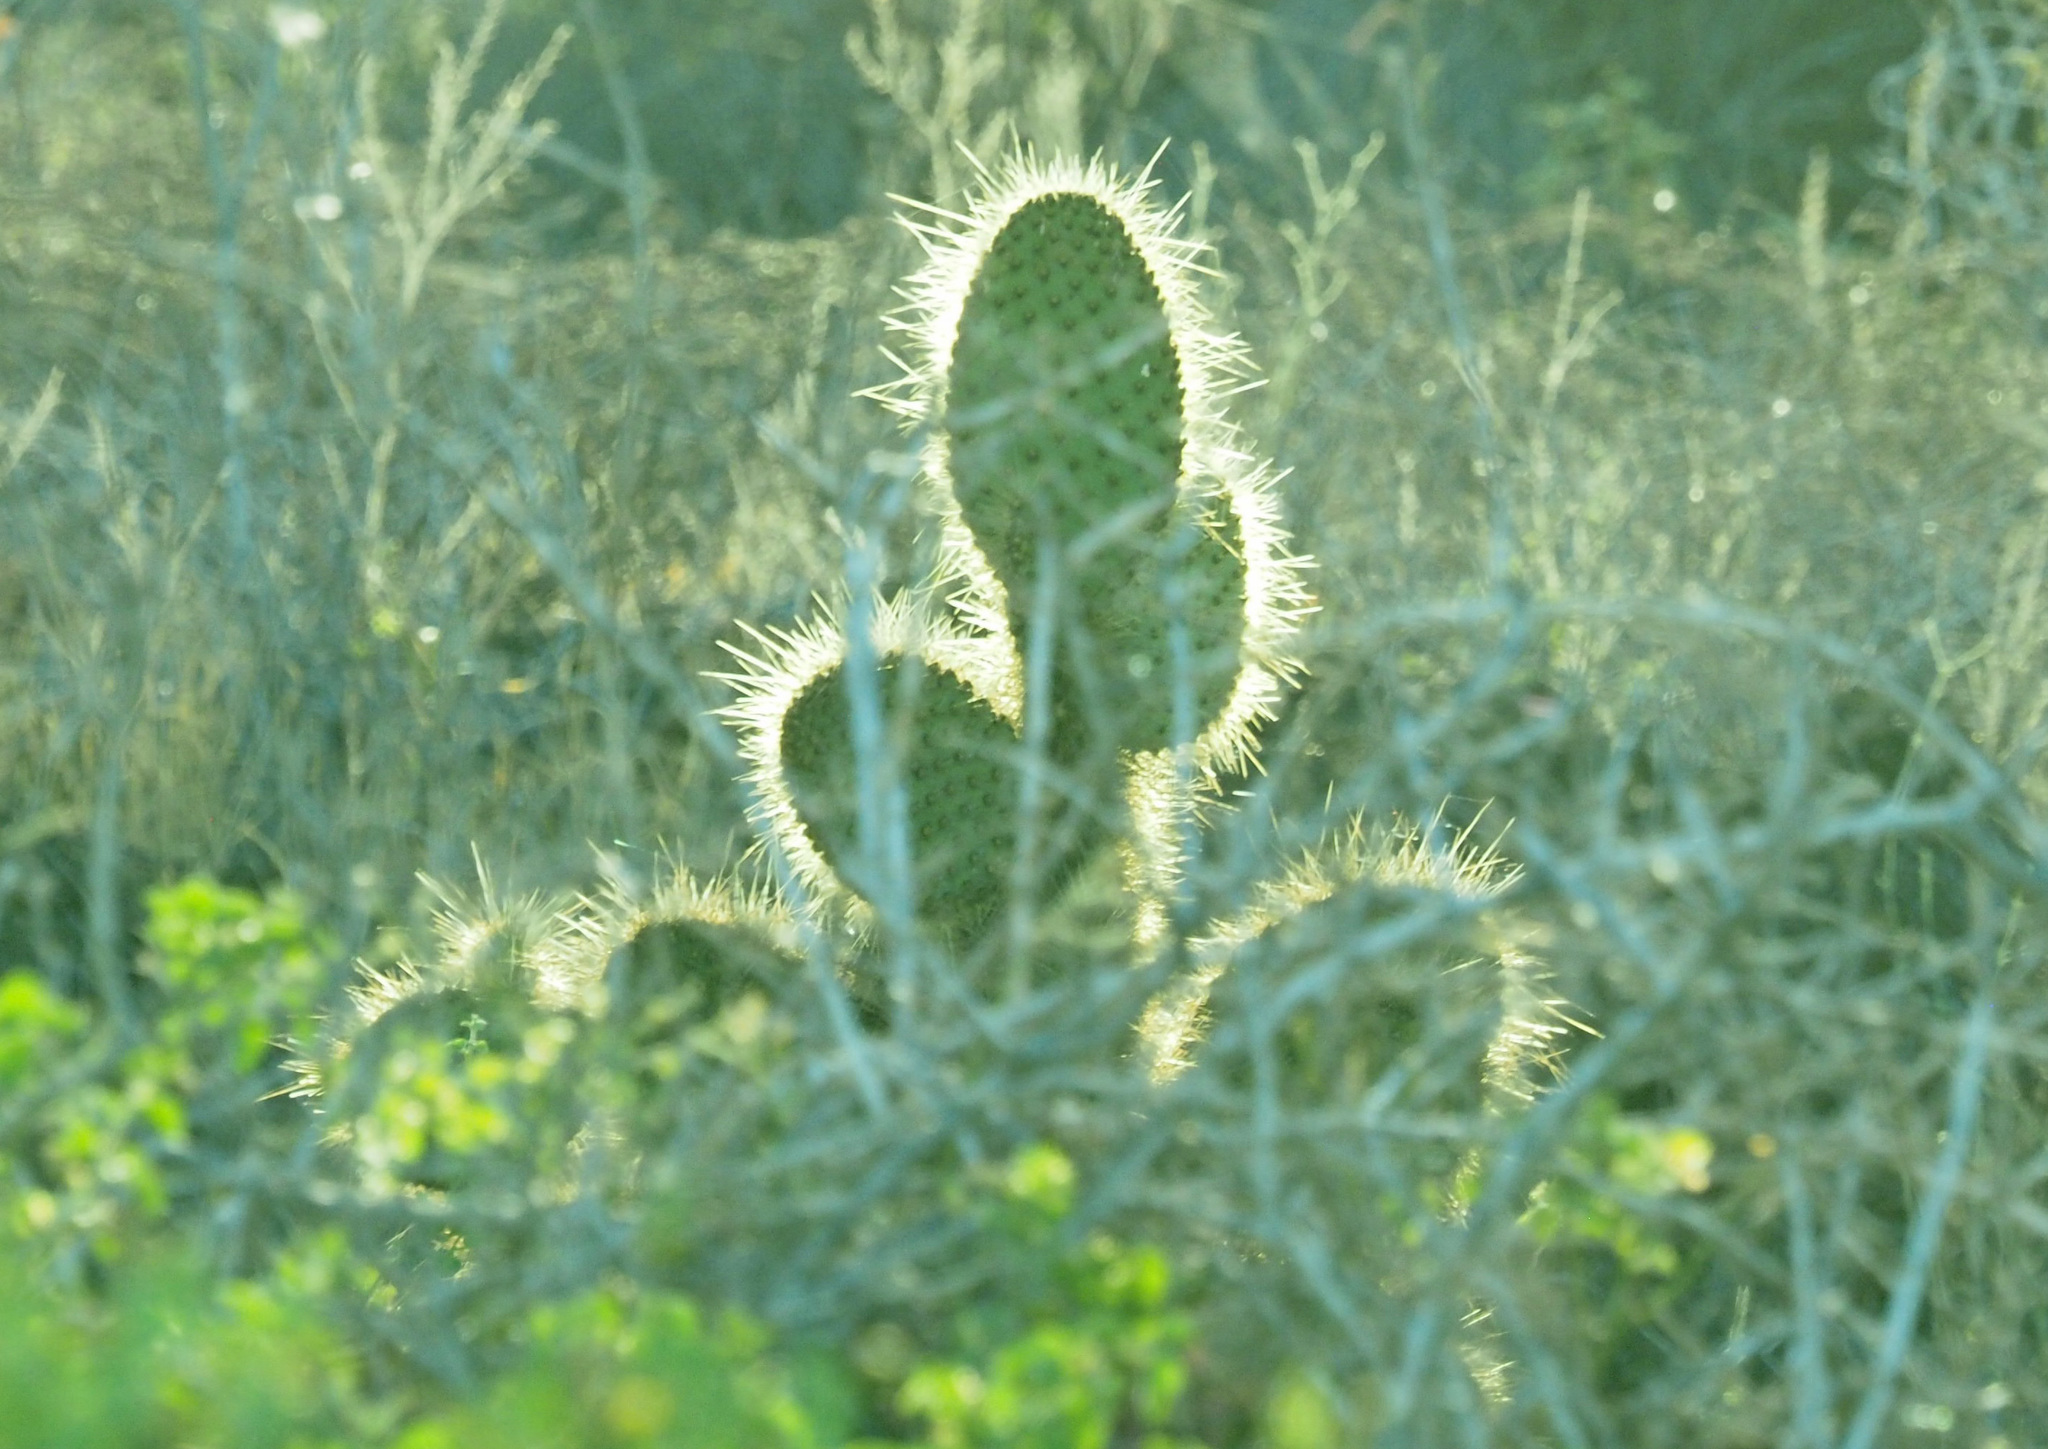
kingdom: Plantae
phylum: Tracheophyta
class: Magnoliopsida
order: Caryophyllales
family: Cactaceae
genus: Opuntia
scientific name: Opuntia galapageia
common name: Galápagos prickly pear
